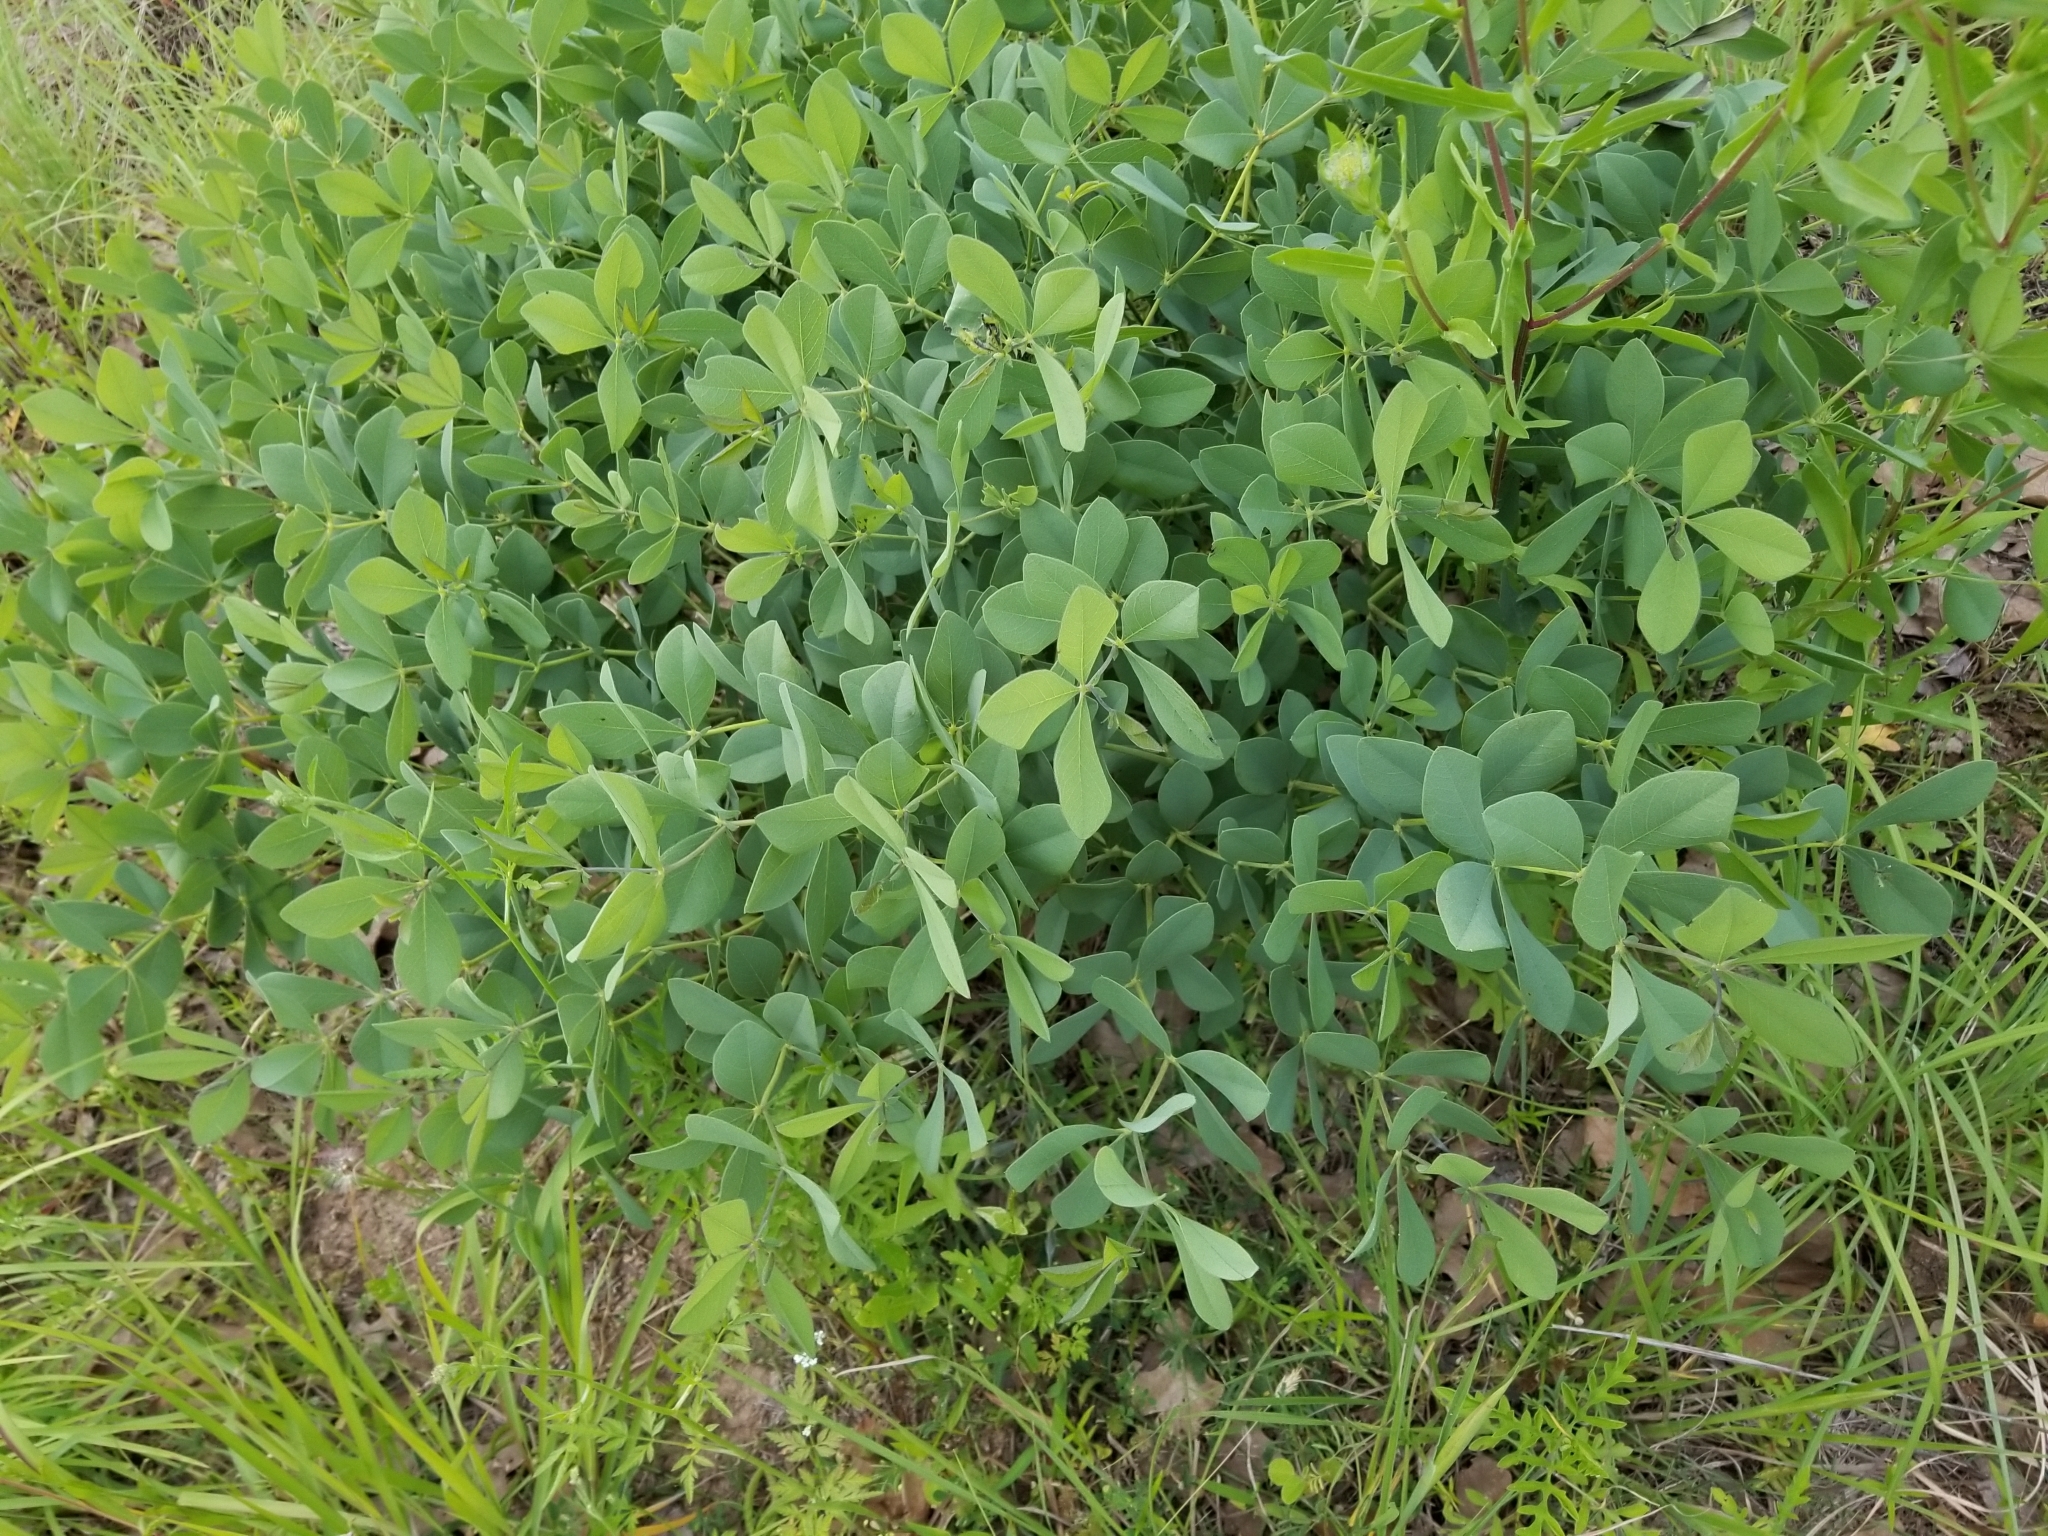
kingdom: Plantae
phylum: Tracheophyta
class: Magnoliopsida
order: Fabales
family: Fabaceae
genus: Baptisia
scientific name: Baptisia bracteata
